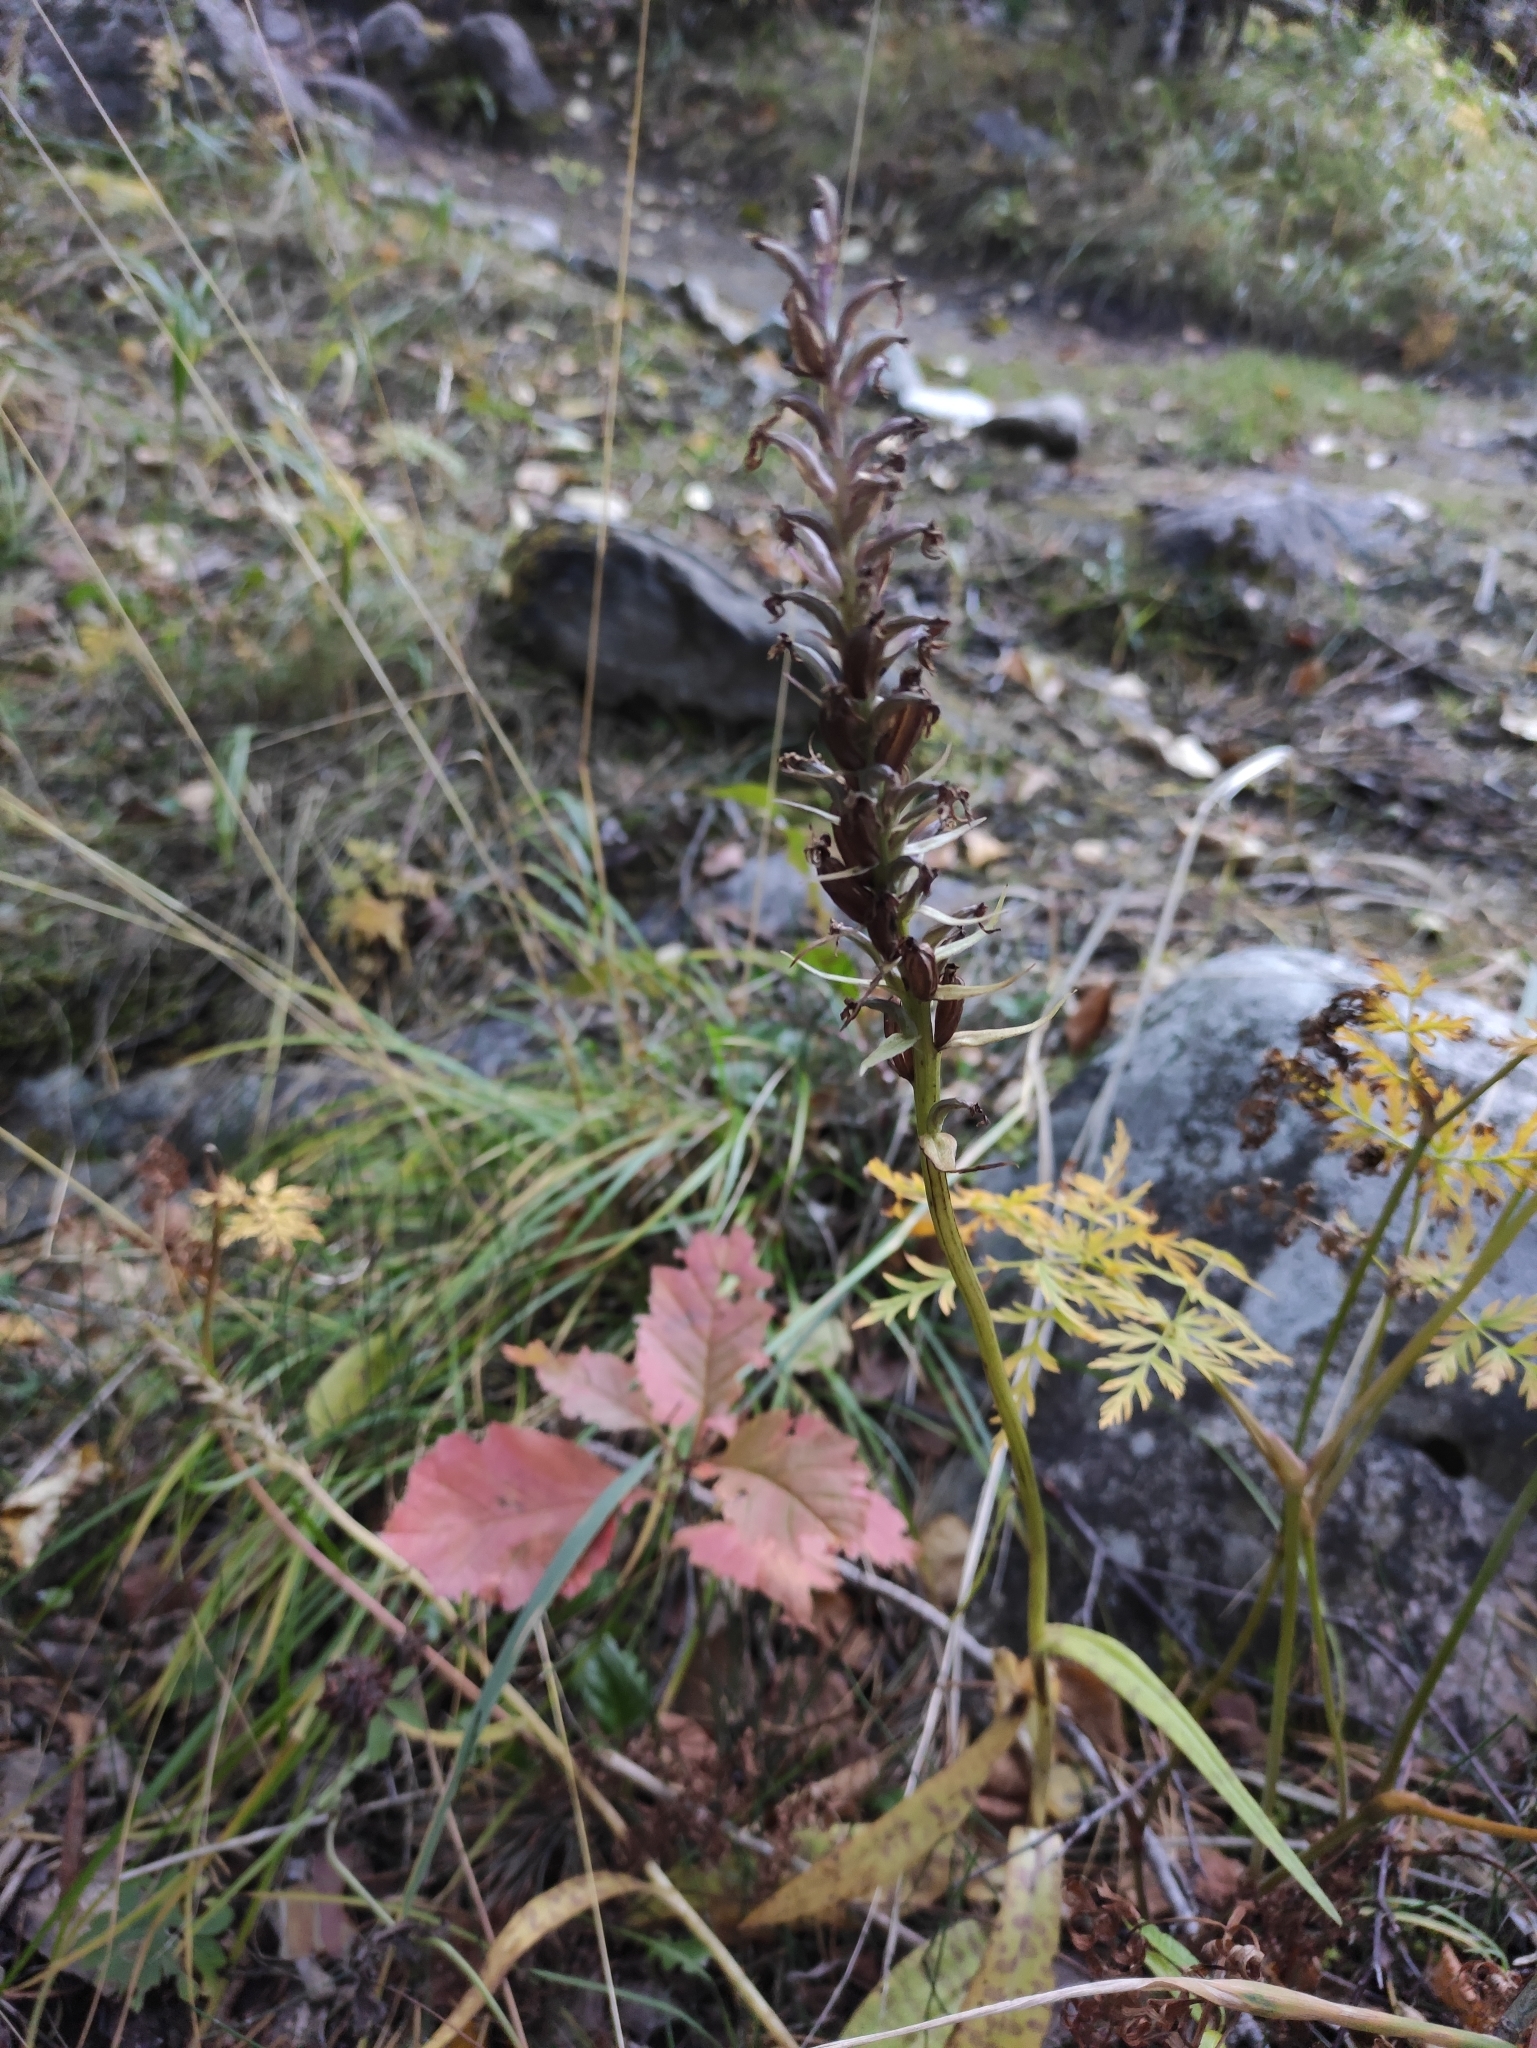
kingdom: Plantae
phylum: Tracheophyta
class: Liliopsida
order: Asparagales
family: Orchidaceae
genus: Dactylorhiza
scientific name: Dactylorhiza maculata
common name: Heath spotted-orchid
